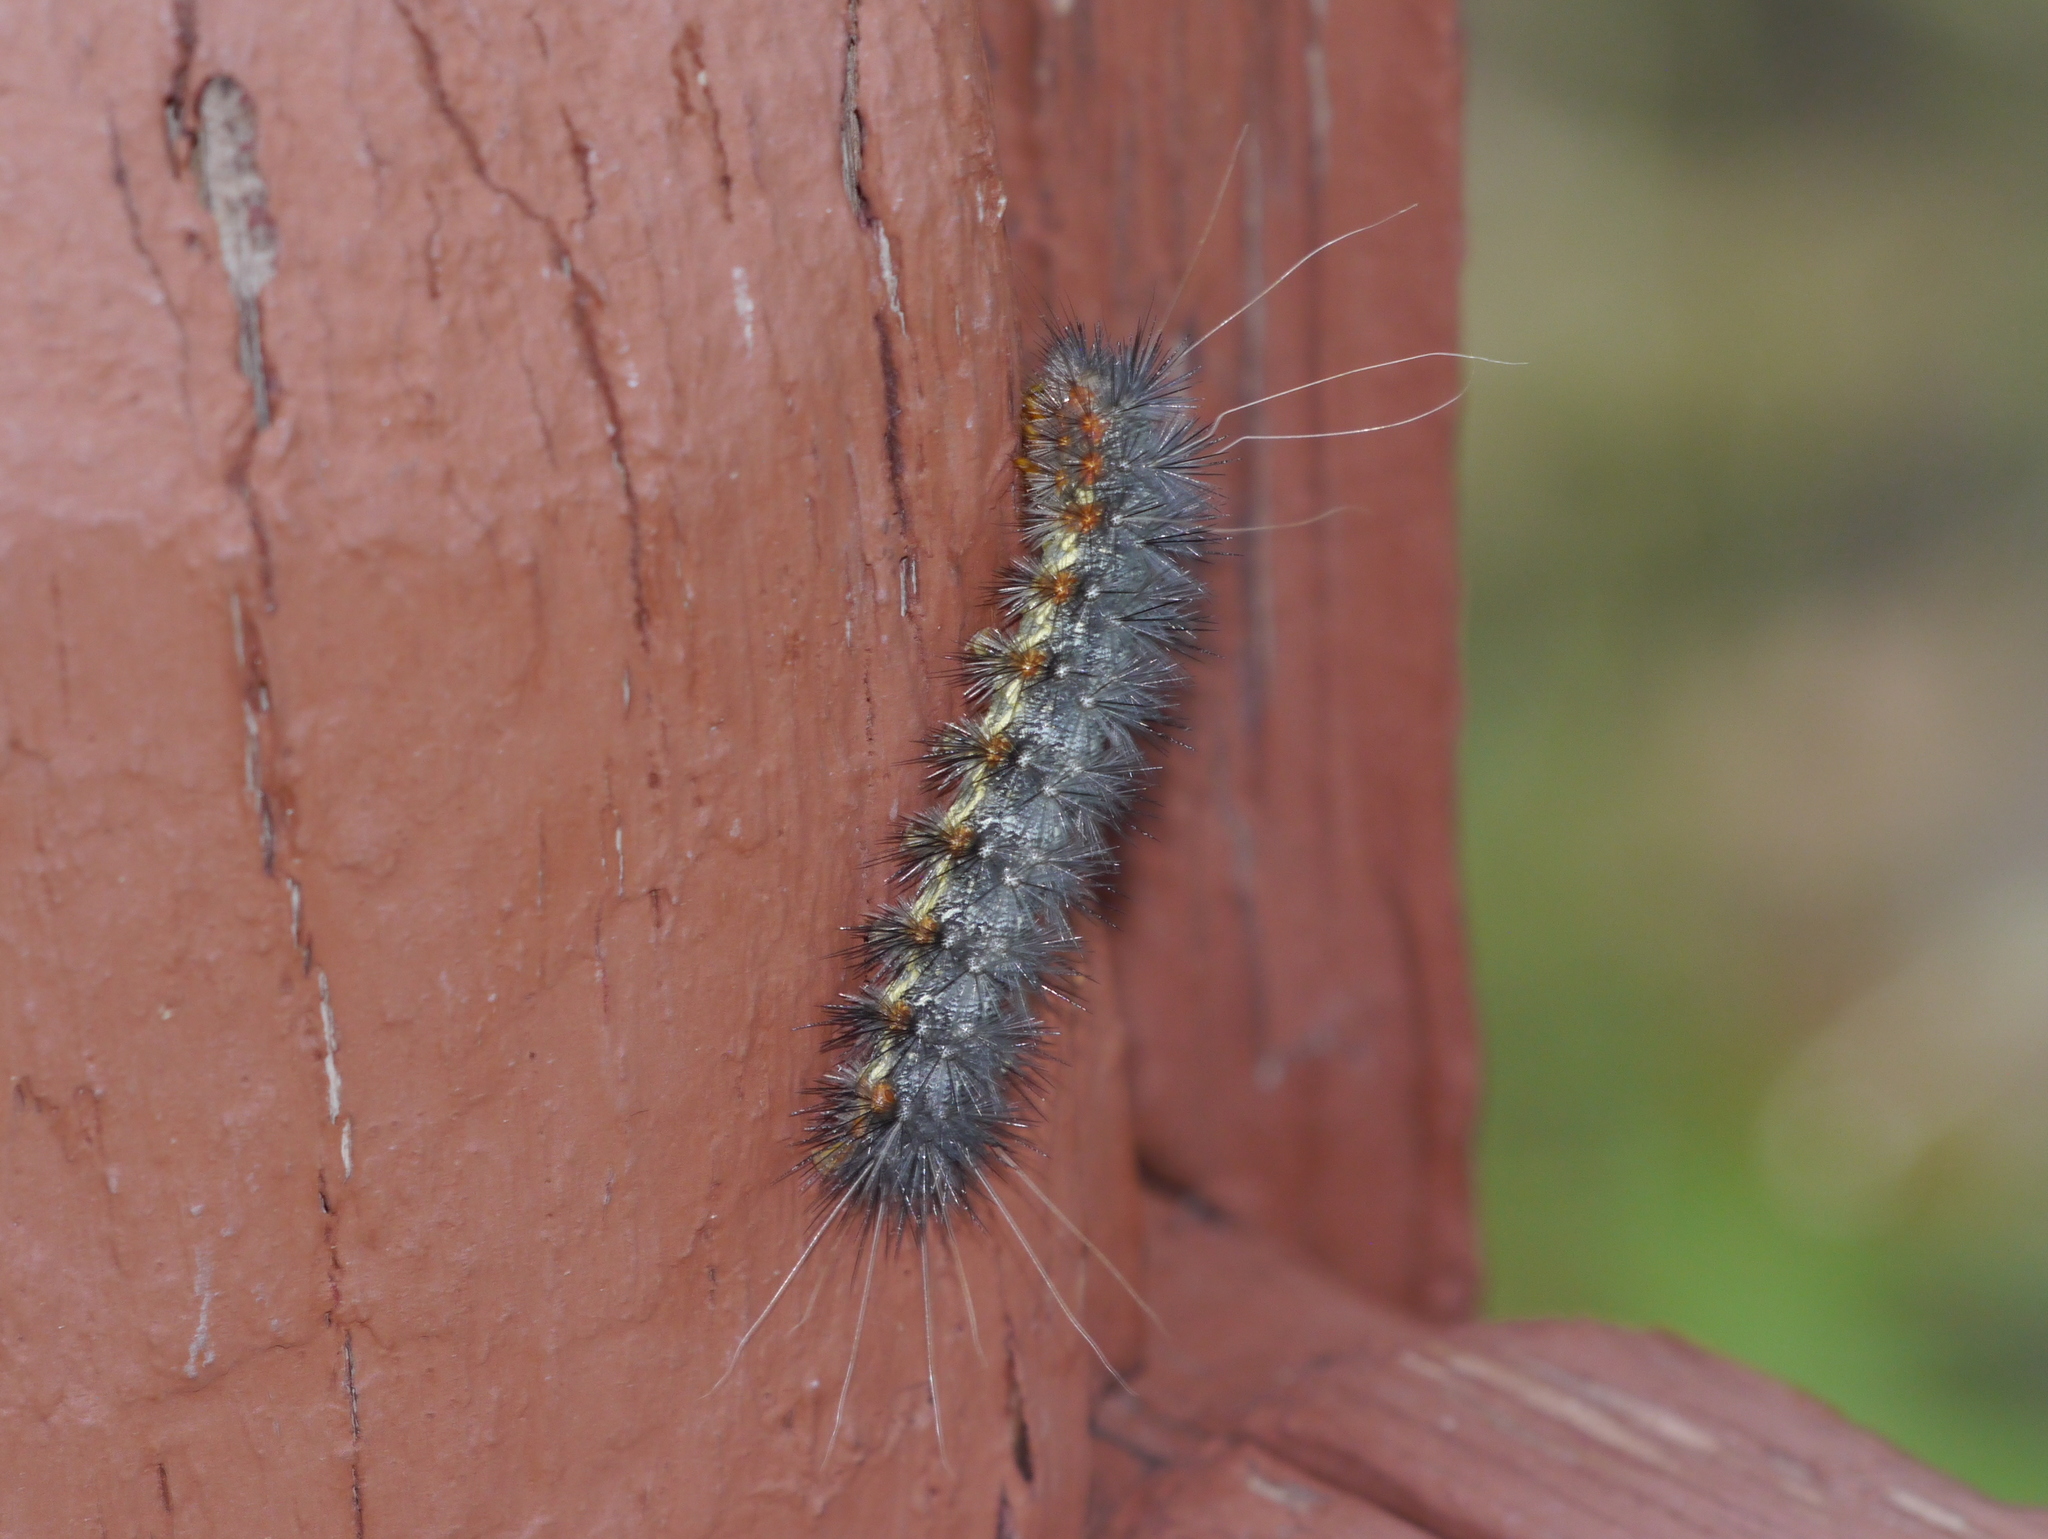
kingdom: Animalia
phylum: Arthropoda
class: Insecta
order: Lepidoptera
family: Erebidae
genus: Hypercompe
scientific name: Hypercompe suffusa
